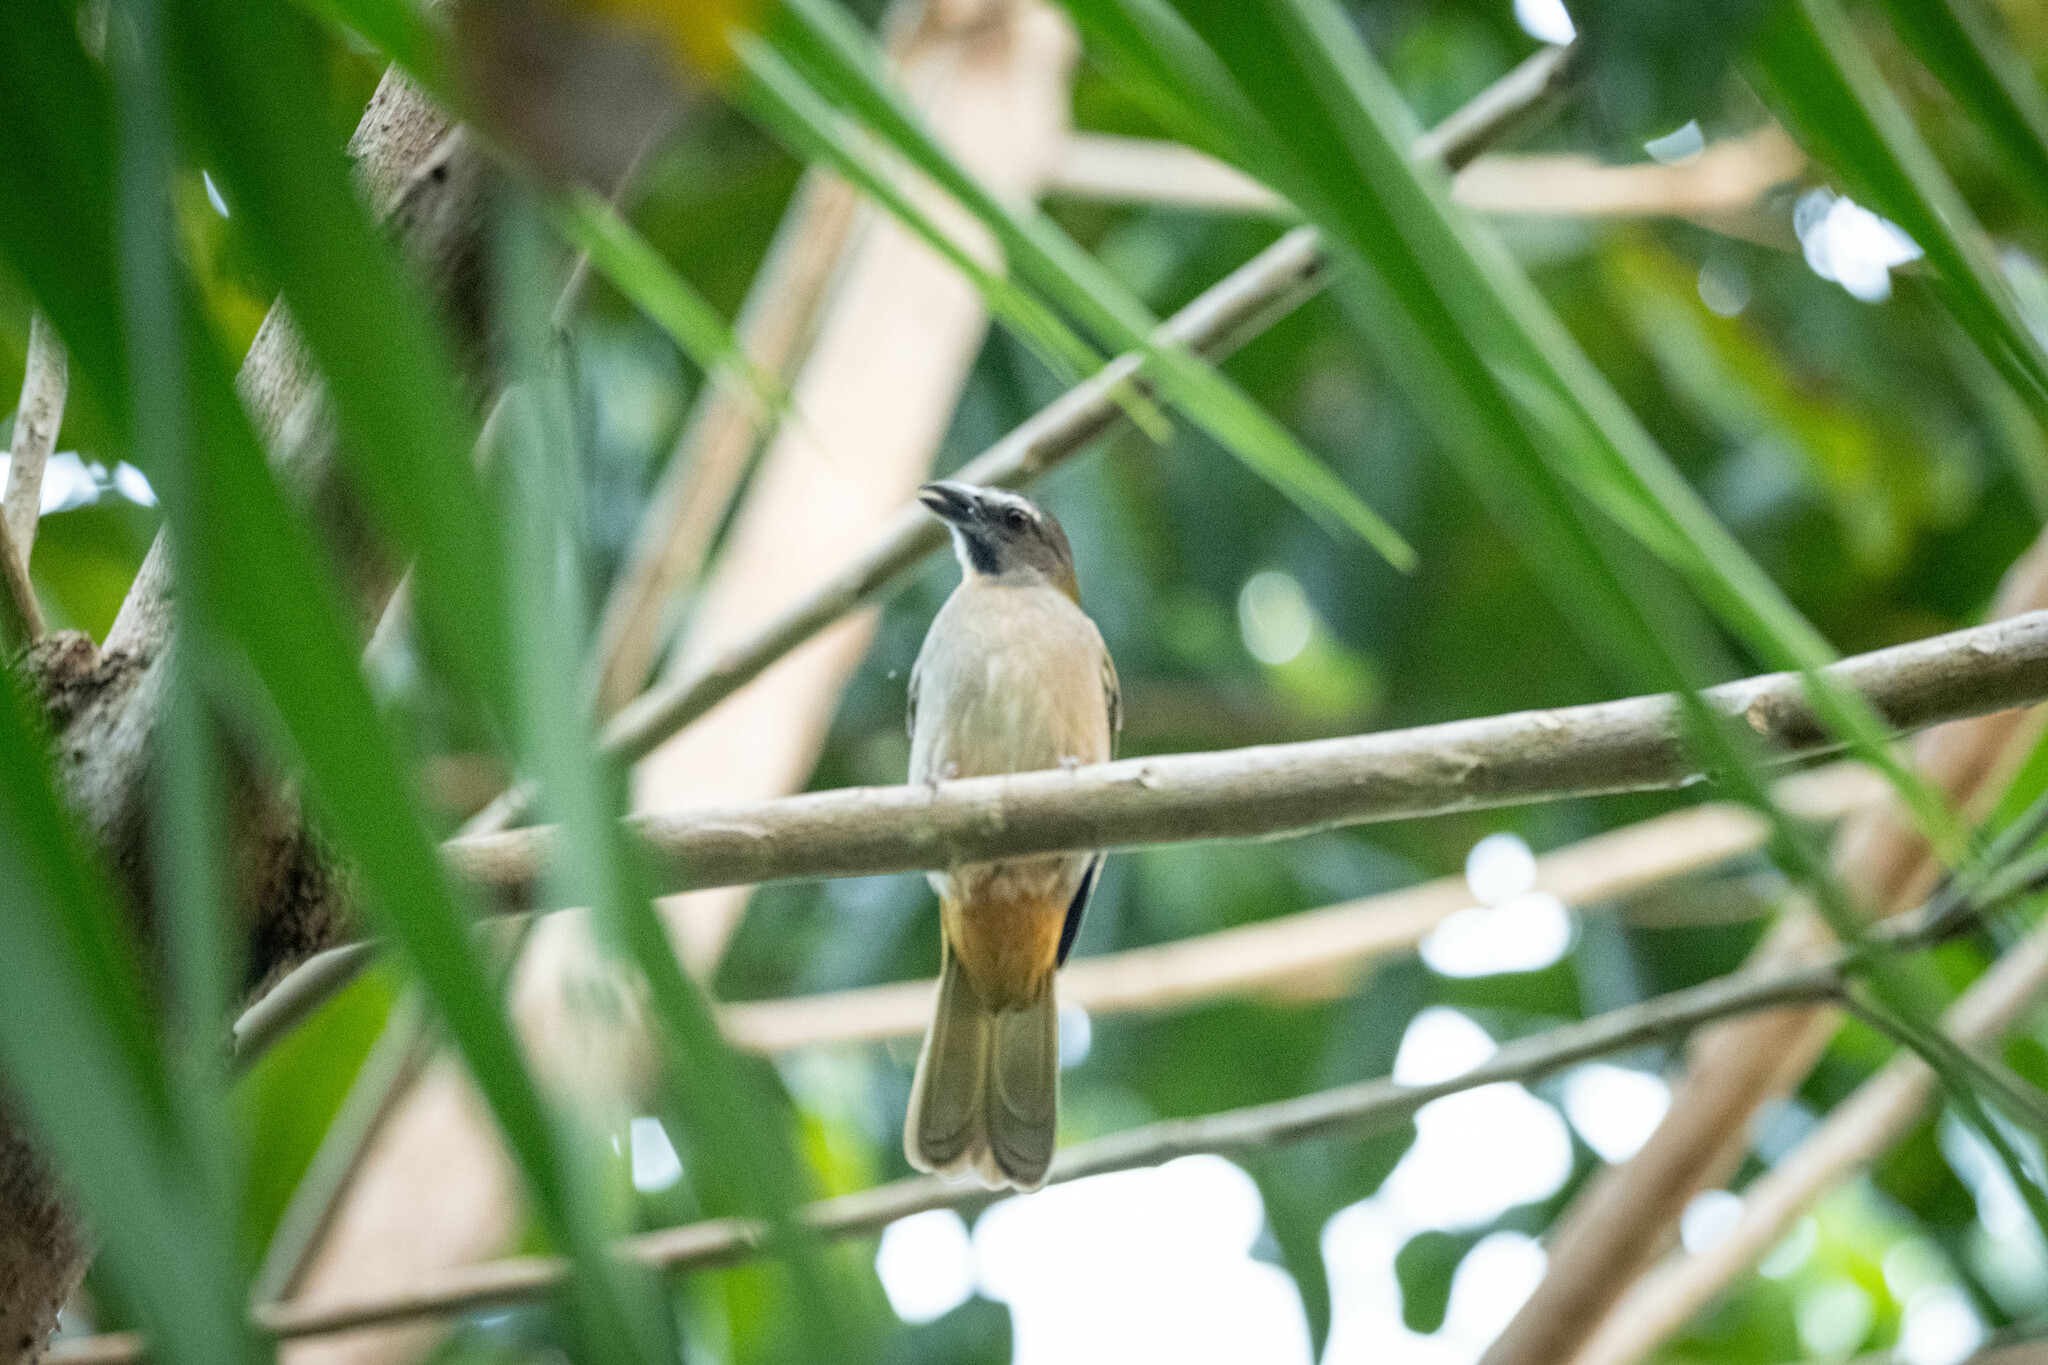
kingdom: Animalia
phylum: Chordata
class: Aves
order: Passeriformes
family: Thraupidae
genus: Saltator
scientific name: Saltator maximus
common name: Buff-throated saltator
